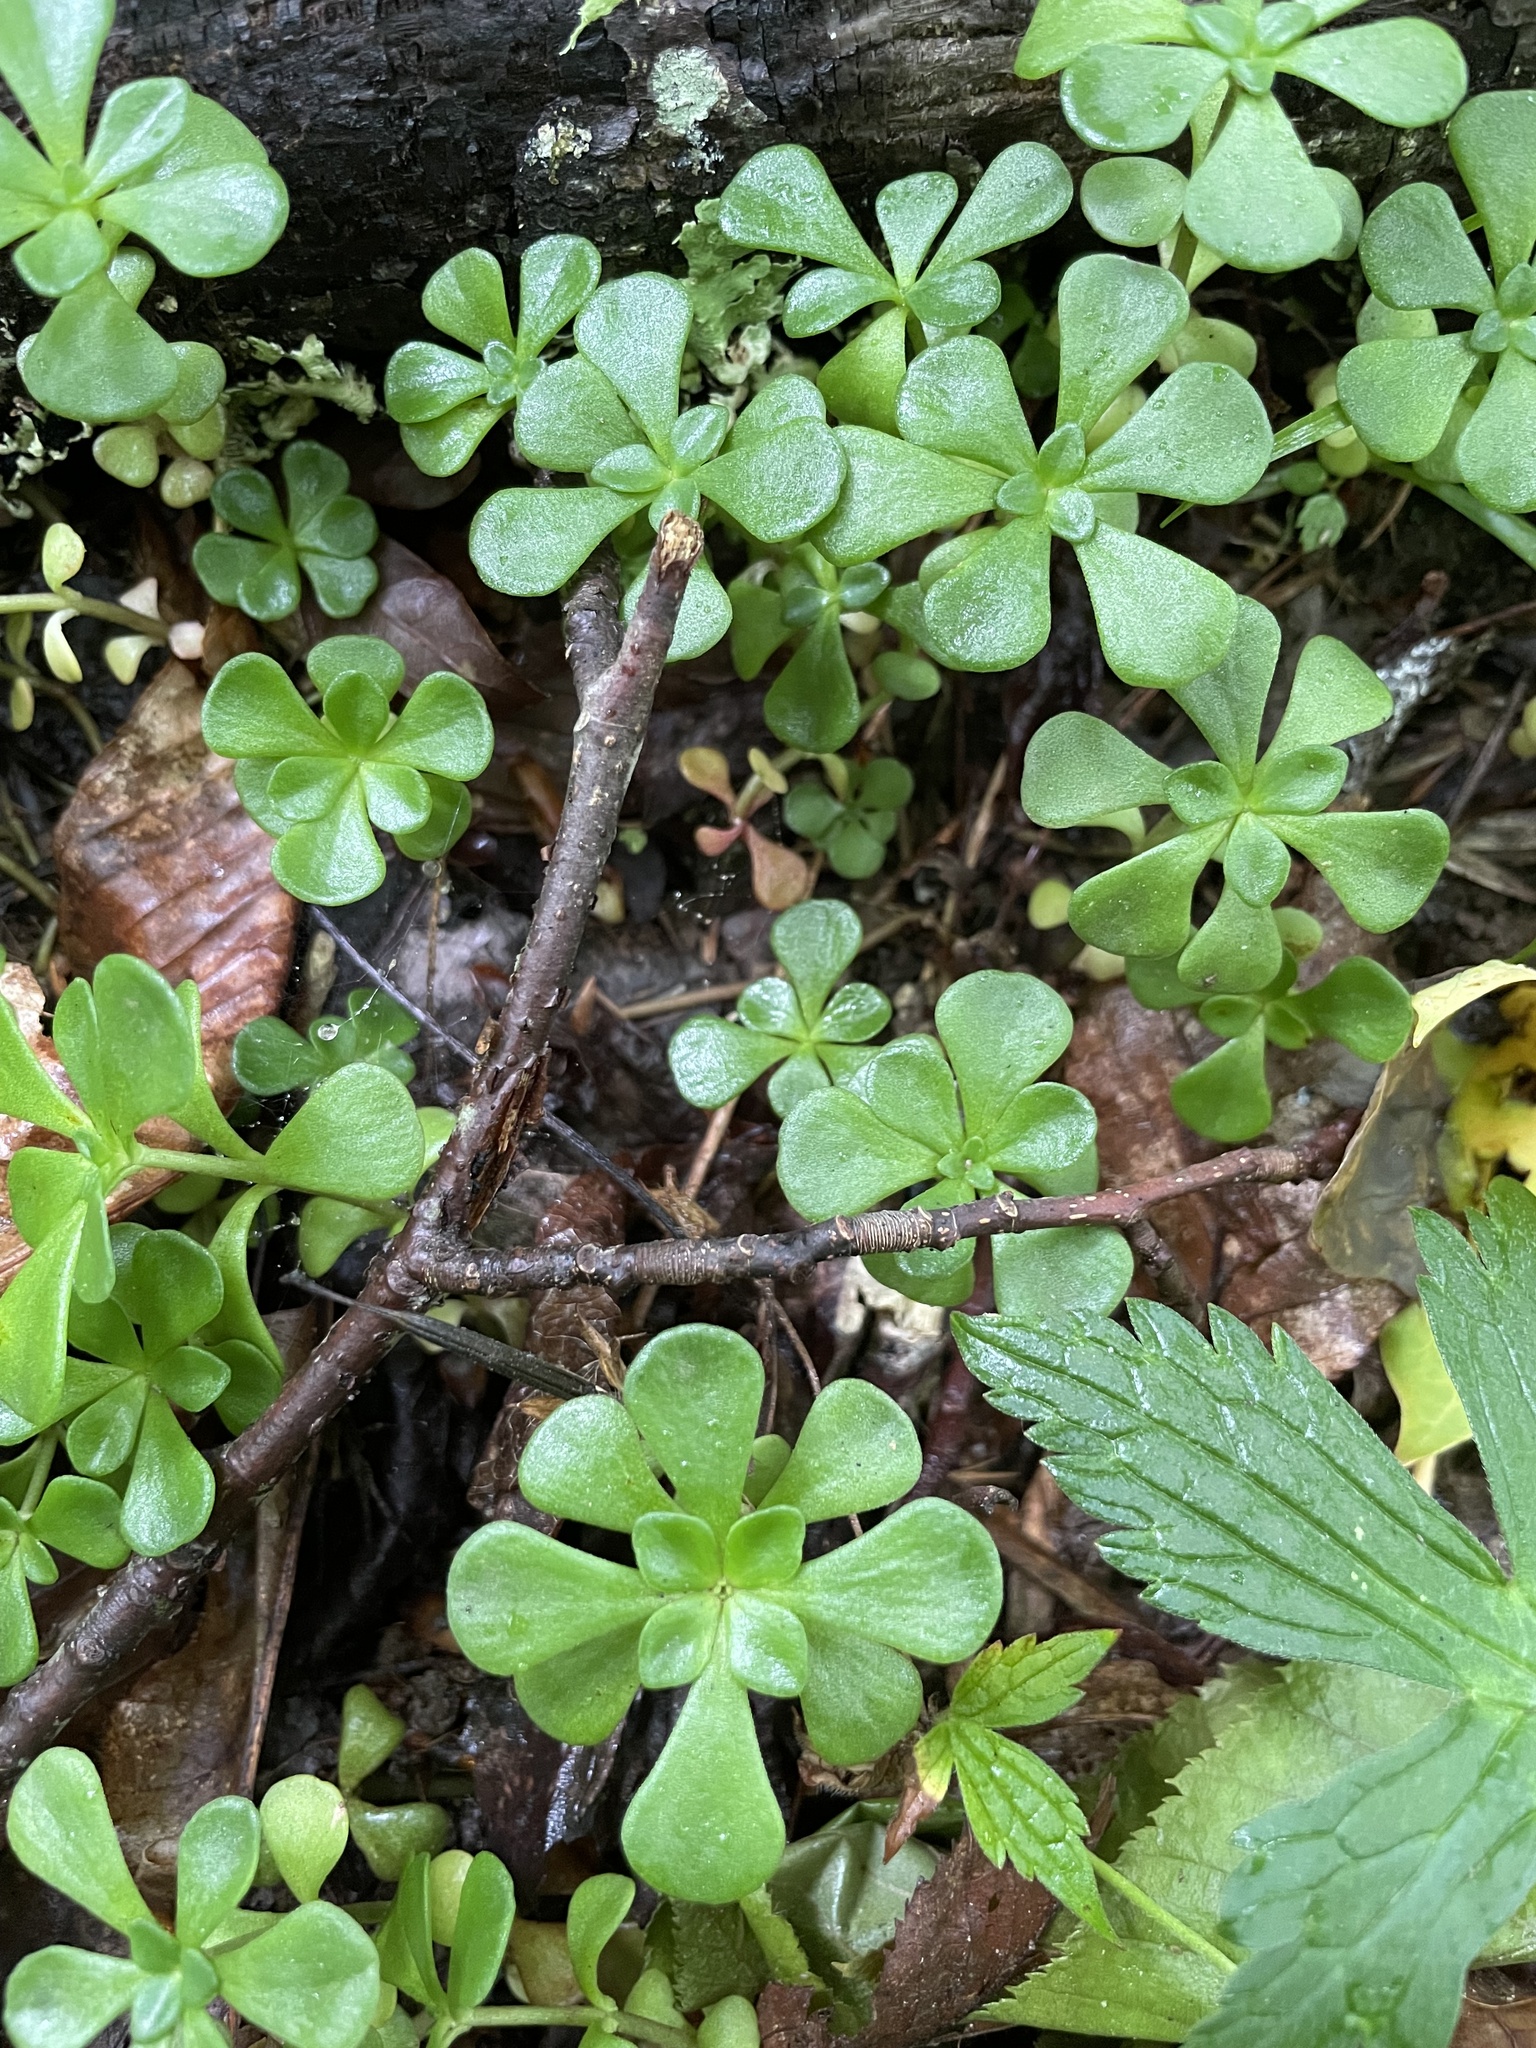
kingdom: Plantae
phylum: Tracheophyta
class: Magnoliopsida
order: Saxifragales
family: Crassulaceae
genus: Sedum
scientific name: Sedum ternatum
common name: Wild stonecrop
